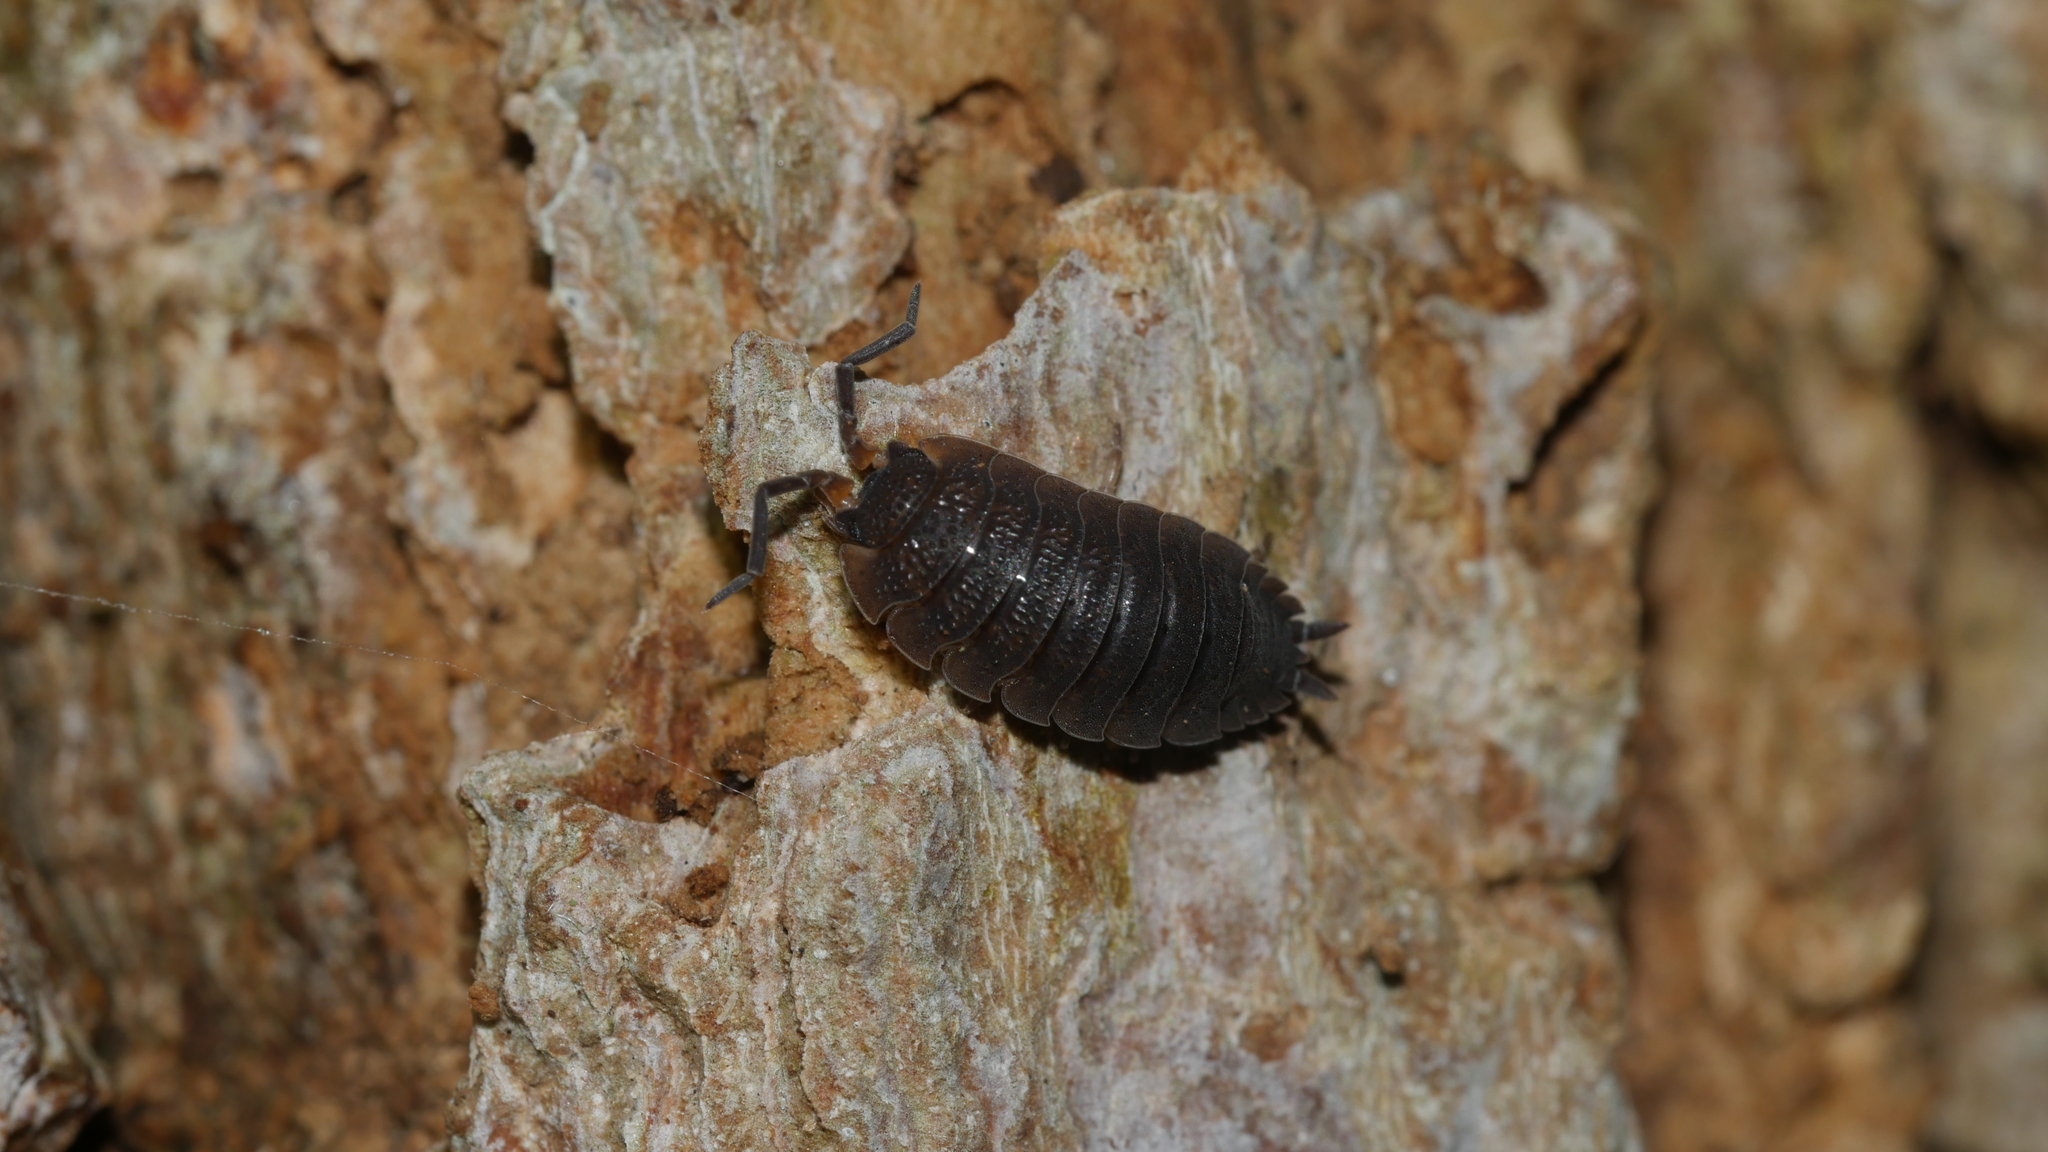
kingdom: Animalia
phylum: Arthropoda
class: Malacostraca
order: Isopoda
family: Porcellionidae
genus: Porcellio
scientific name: Porcellio scaber
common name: Common rough woodlouse
